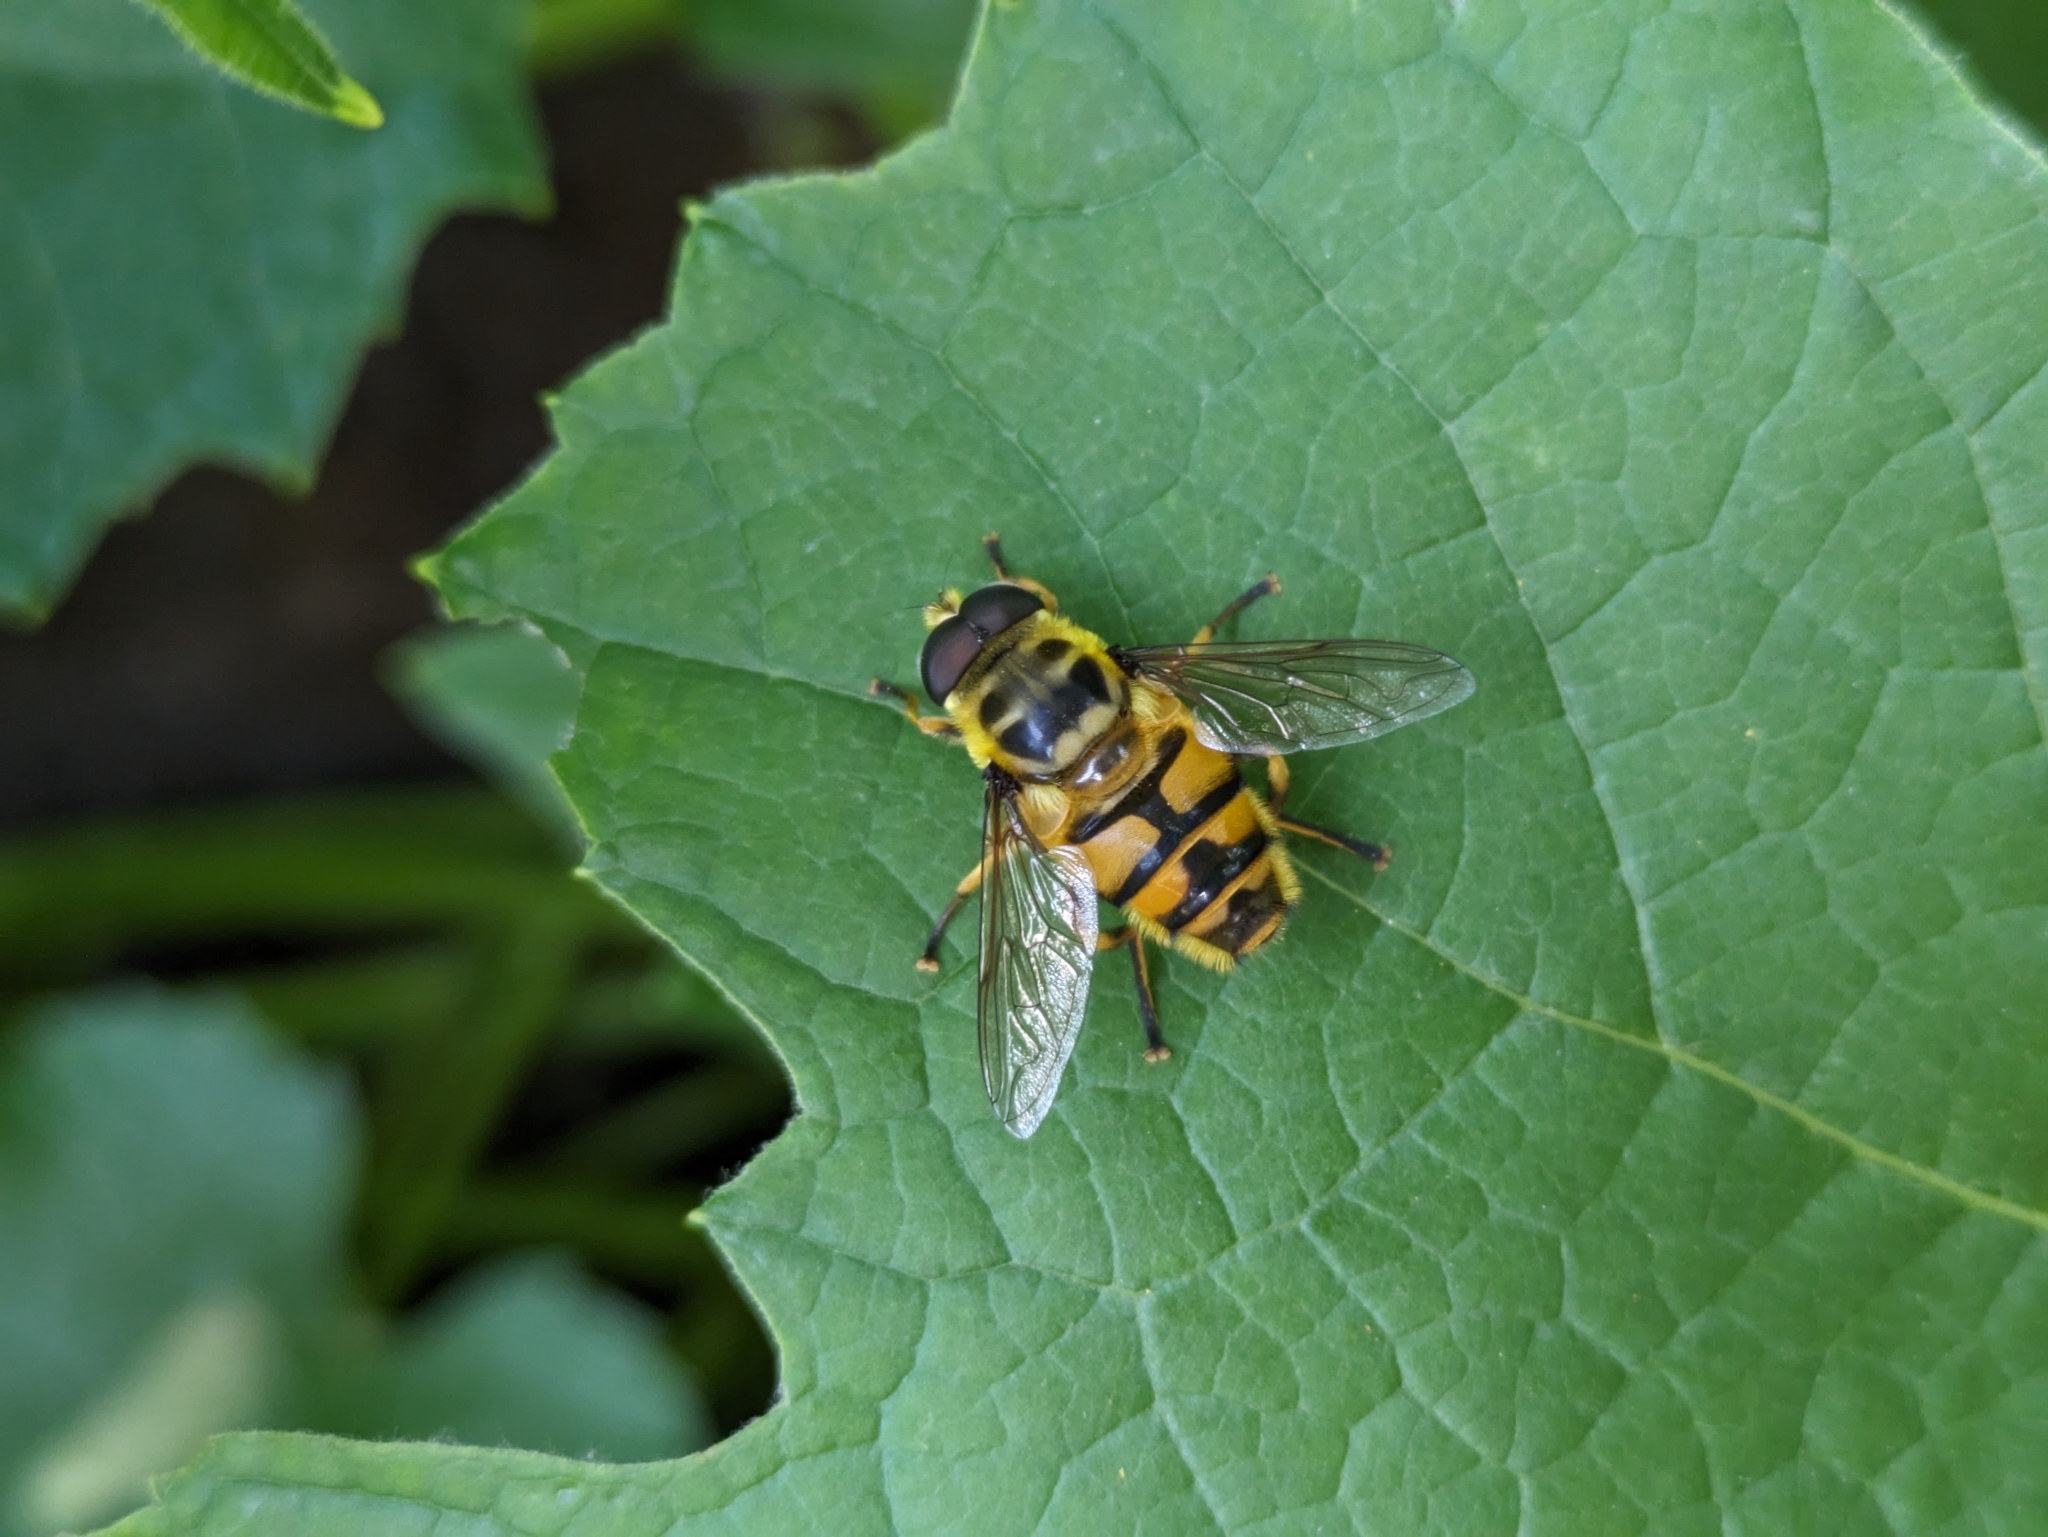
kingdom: Animalia
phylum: Arthropoda
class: Insecta
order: Diptera
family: Syrphidae
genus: Myathropa
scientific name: Myathropa florea
